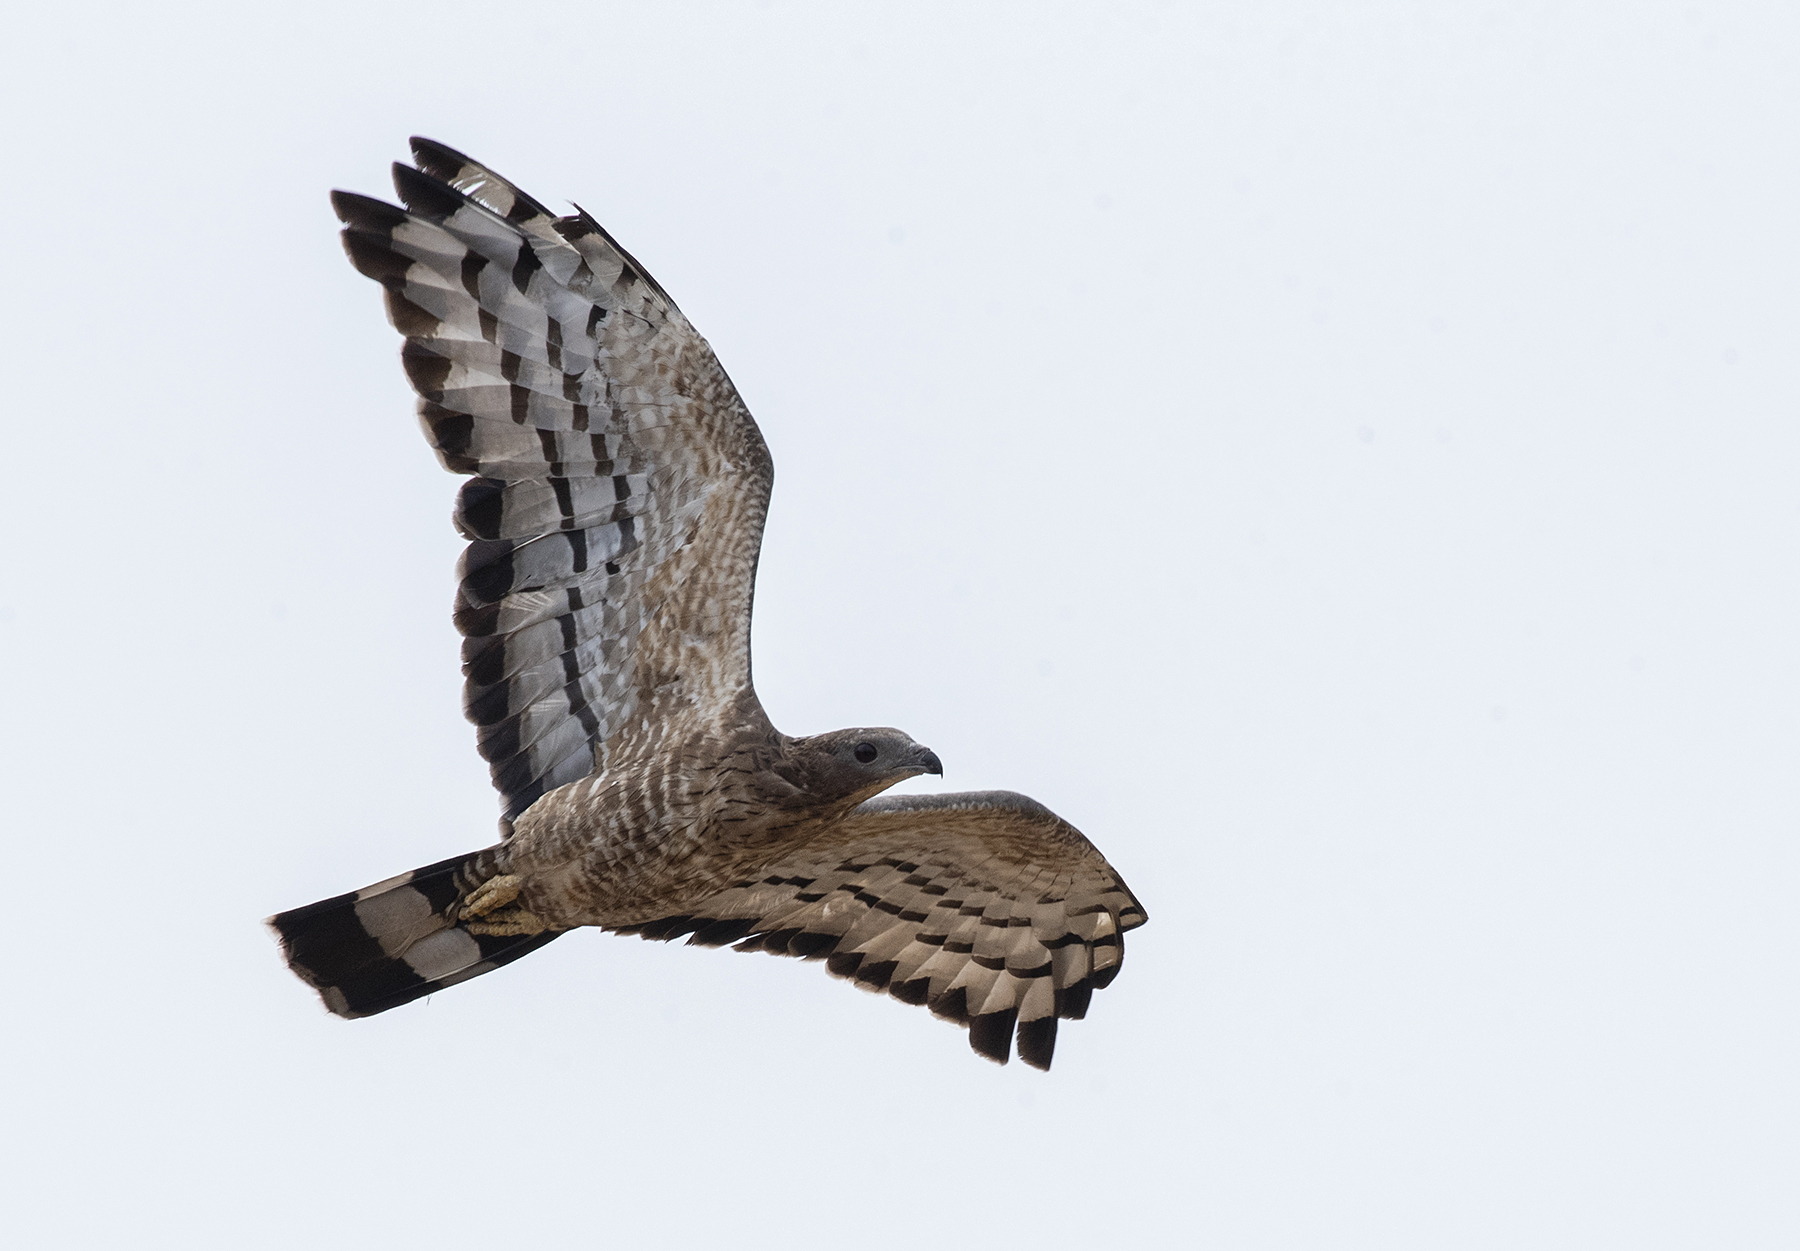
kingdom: Animalia
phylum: Chordata
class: Aves
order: Accipitriformes
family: Accipitridae
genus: Pernis
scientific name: Pernis ptilorhynchus
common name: Crested honey buzzard
